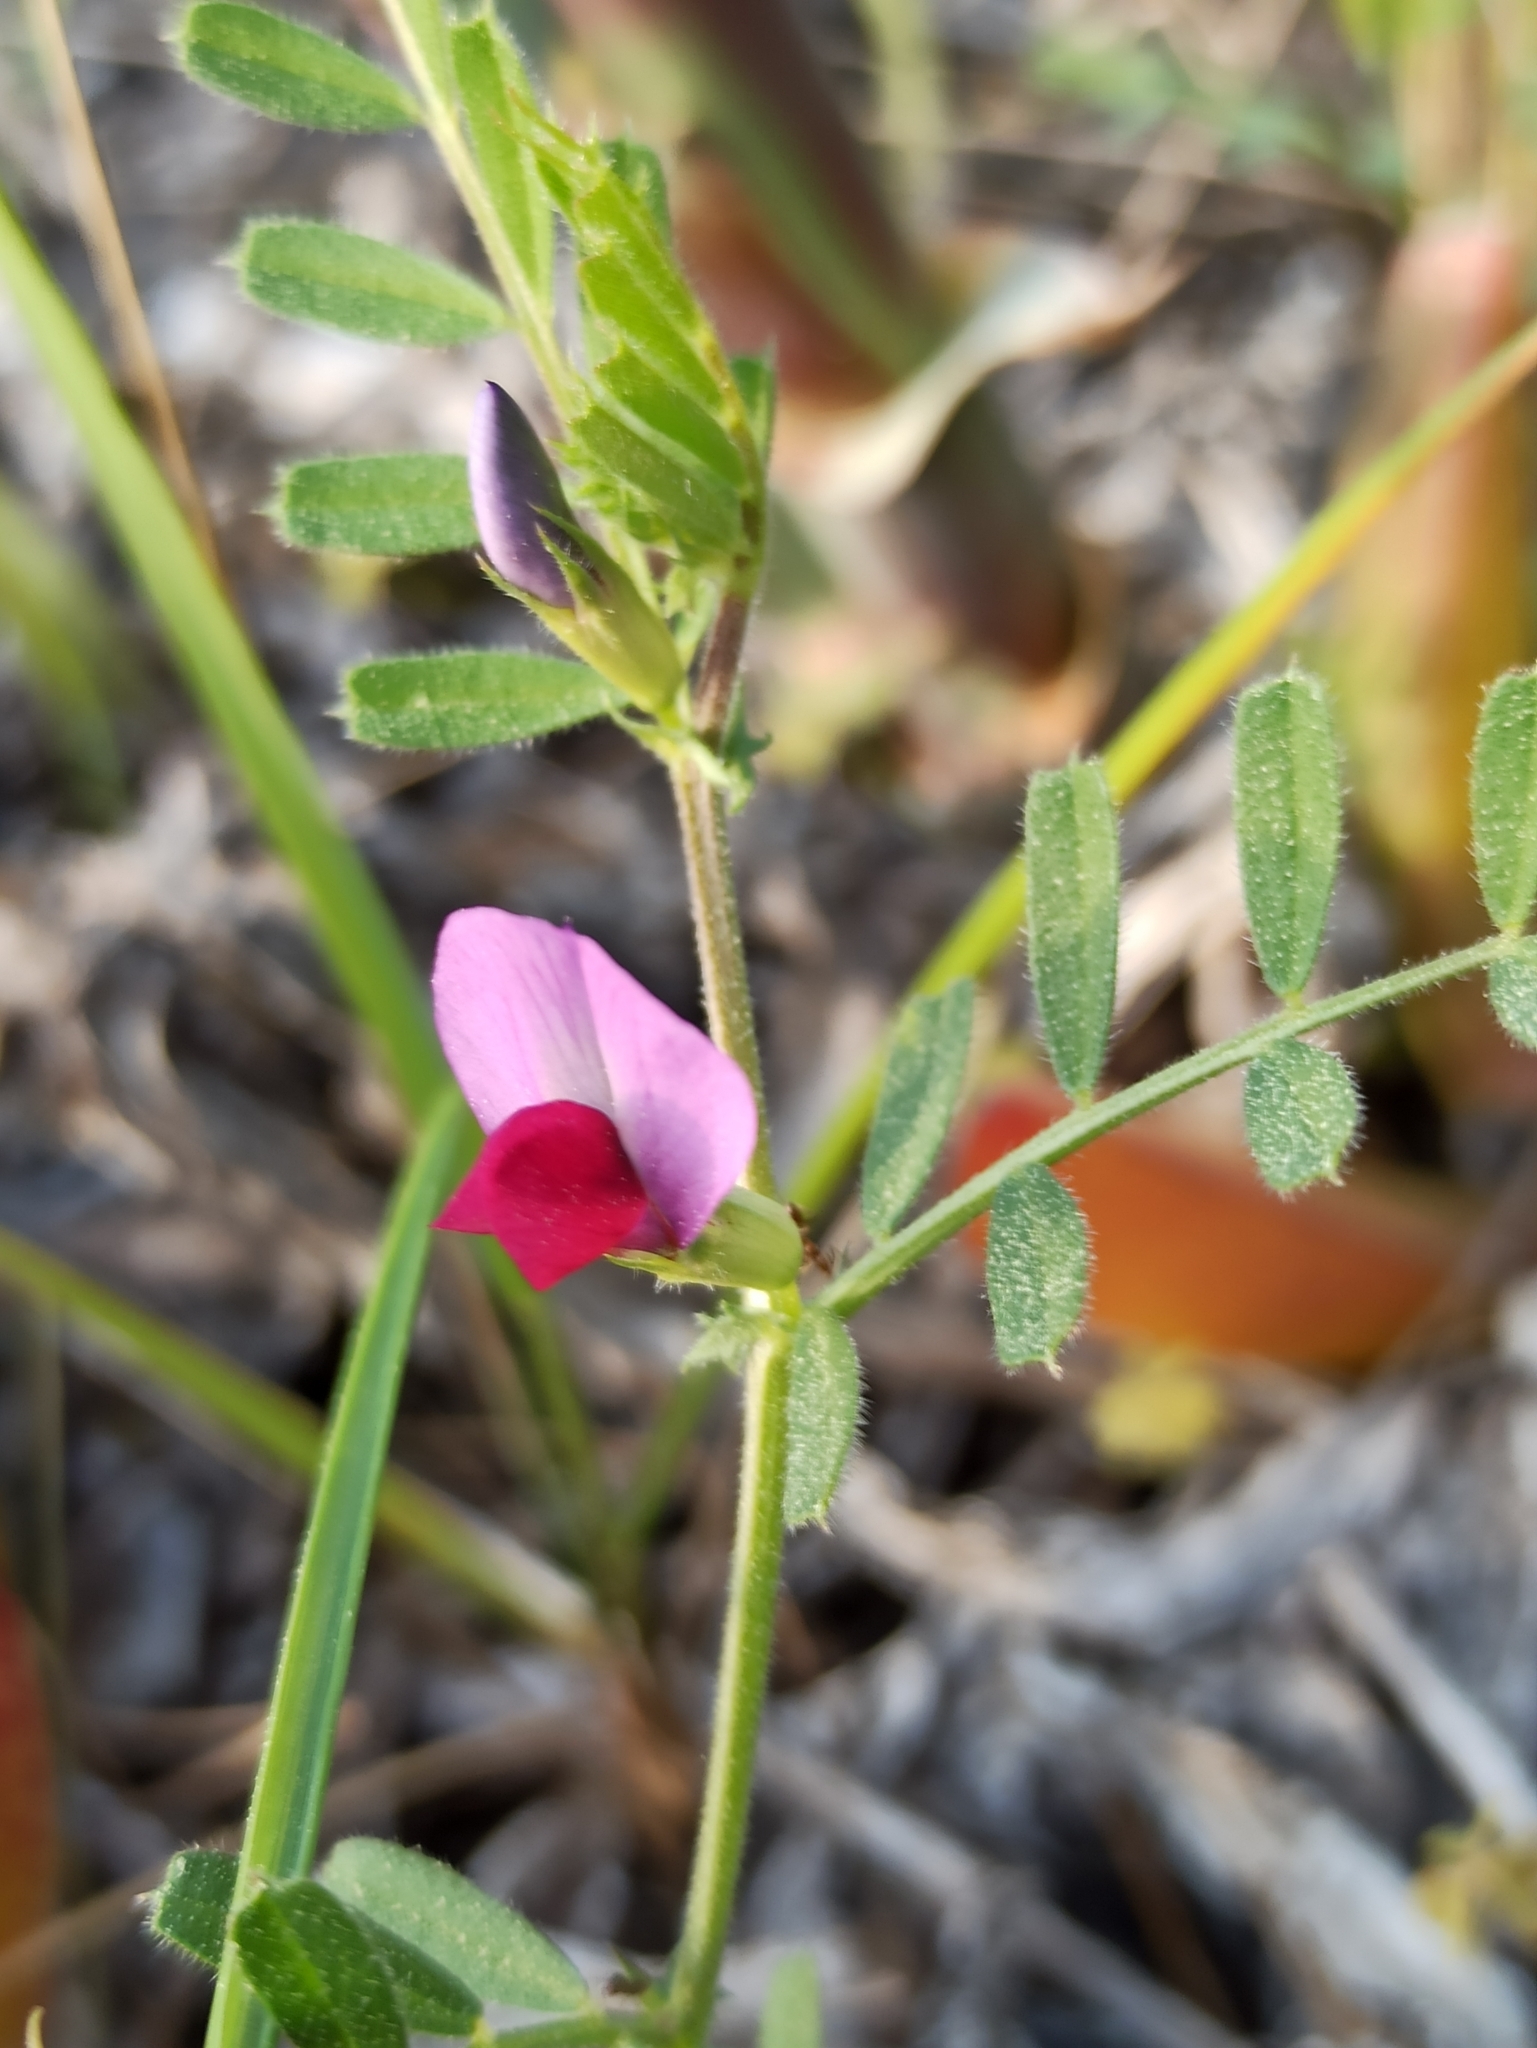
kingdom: Plantae
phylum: Tracheophyta
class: Magnoliopsida
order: Fabales
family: Fabaceae
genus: Vicia
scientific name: Vicia sativa
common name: Garden vetch
